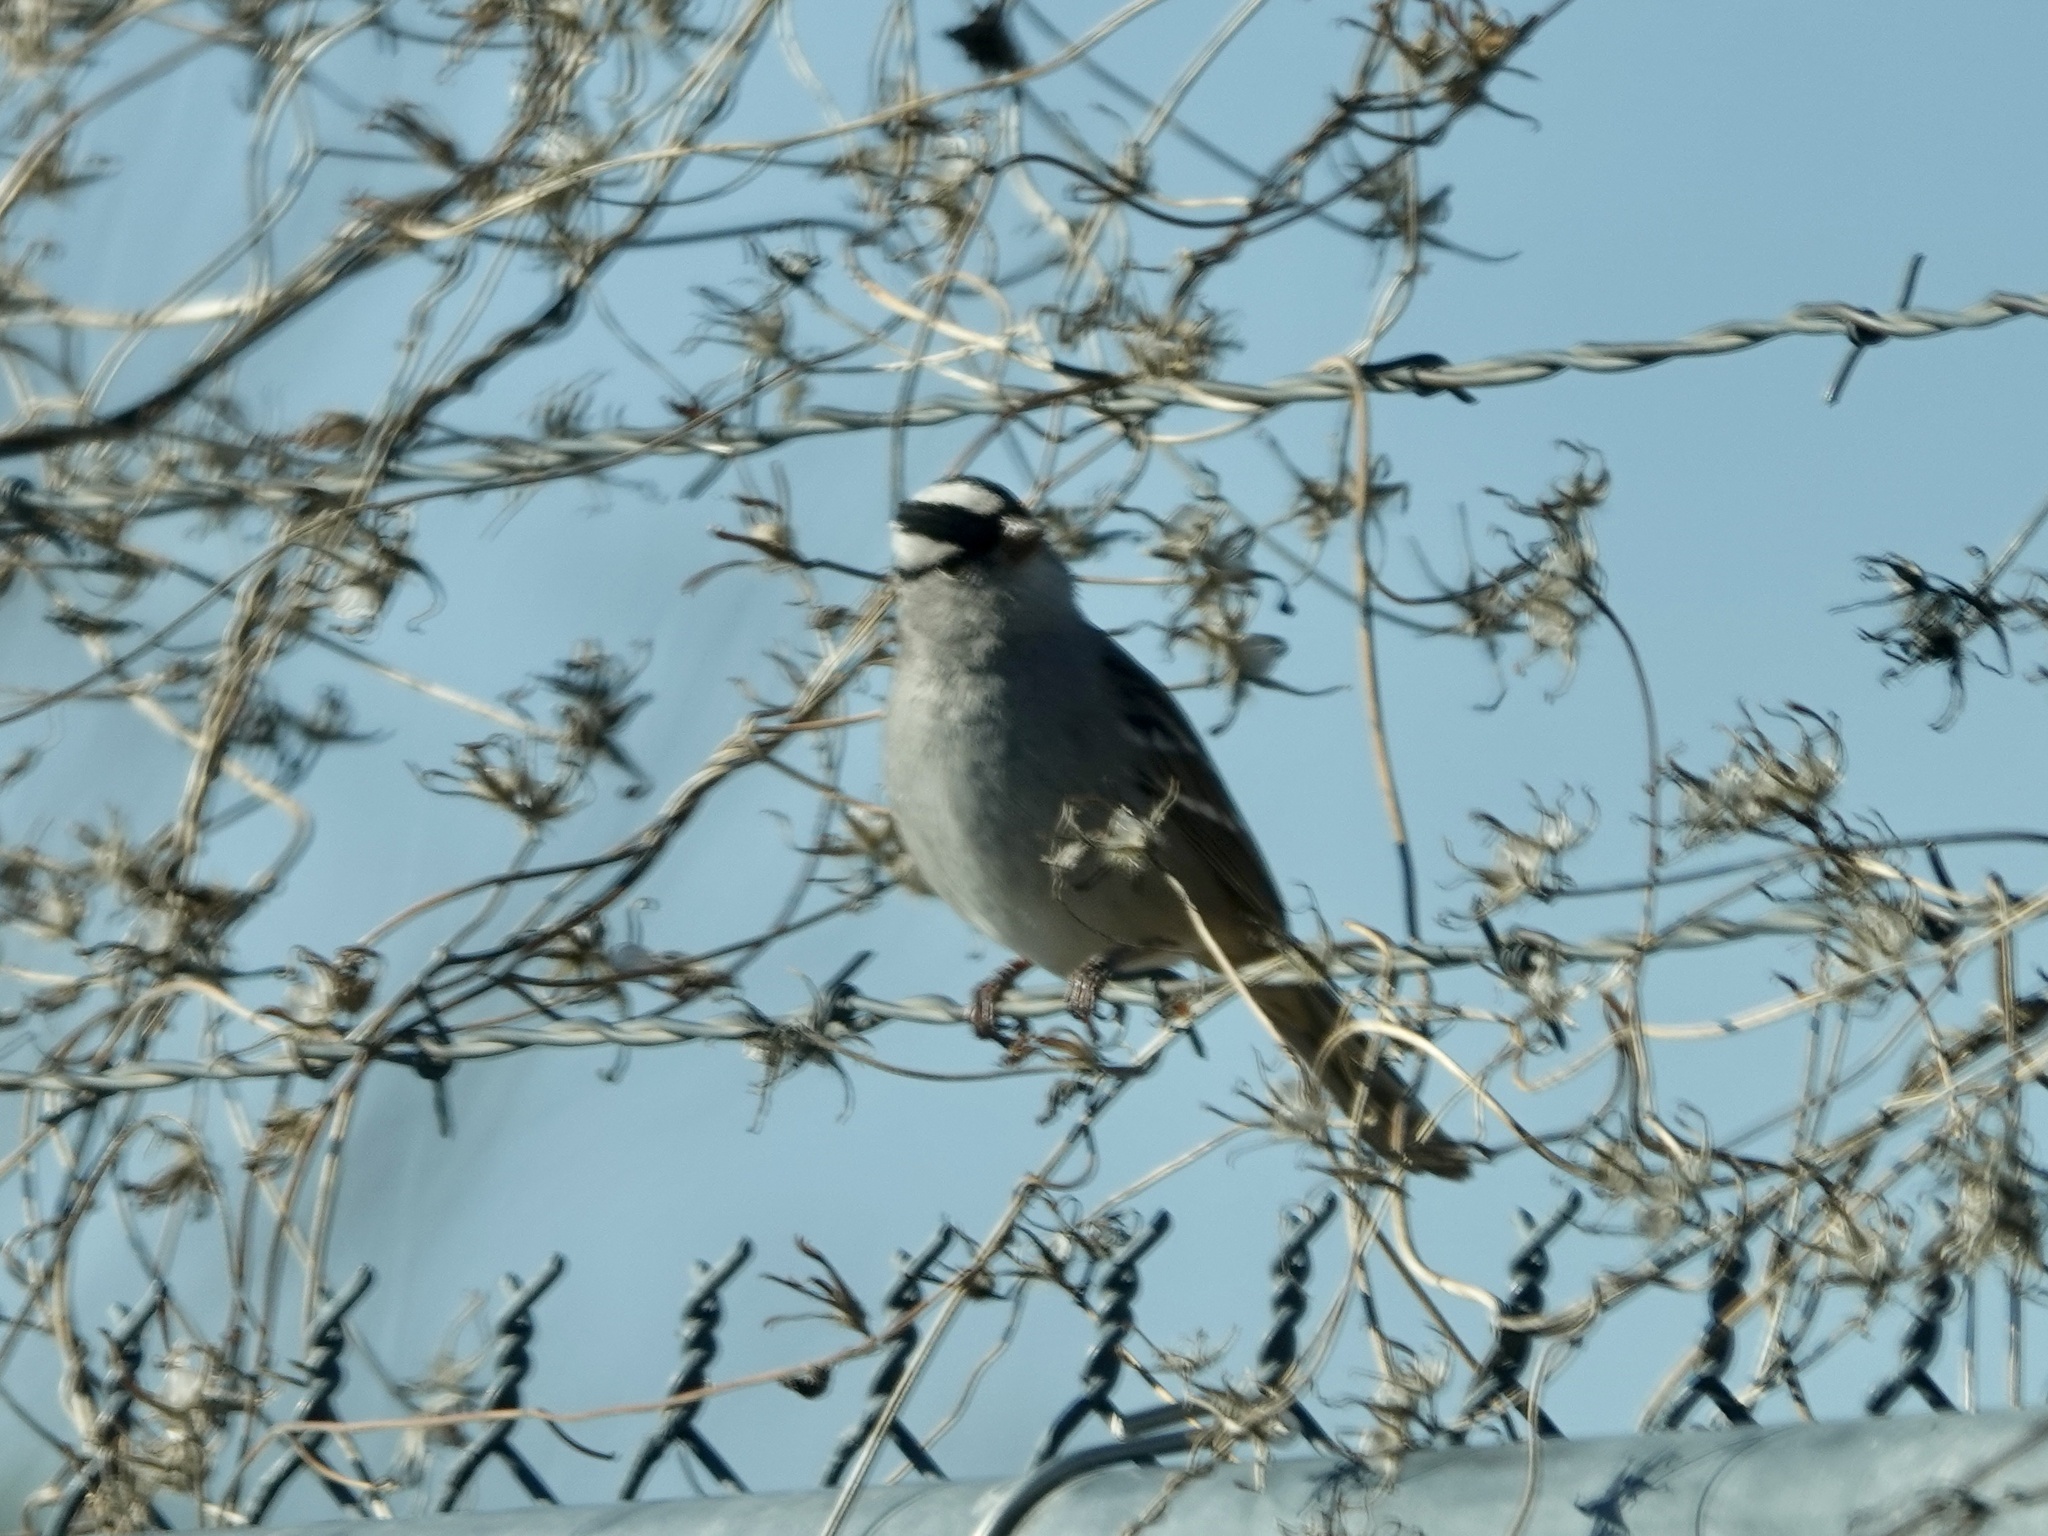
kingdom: Animalia
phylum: Chordata
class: Aves
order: Passeriformes
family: Passerellidae
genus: Zonotrichia
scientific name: Zonotrichia leucophrys
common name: White-crowned sparrow
